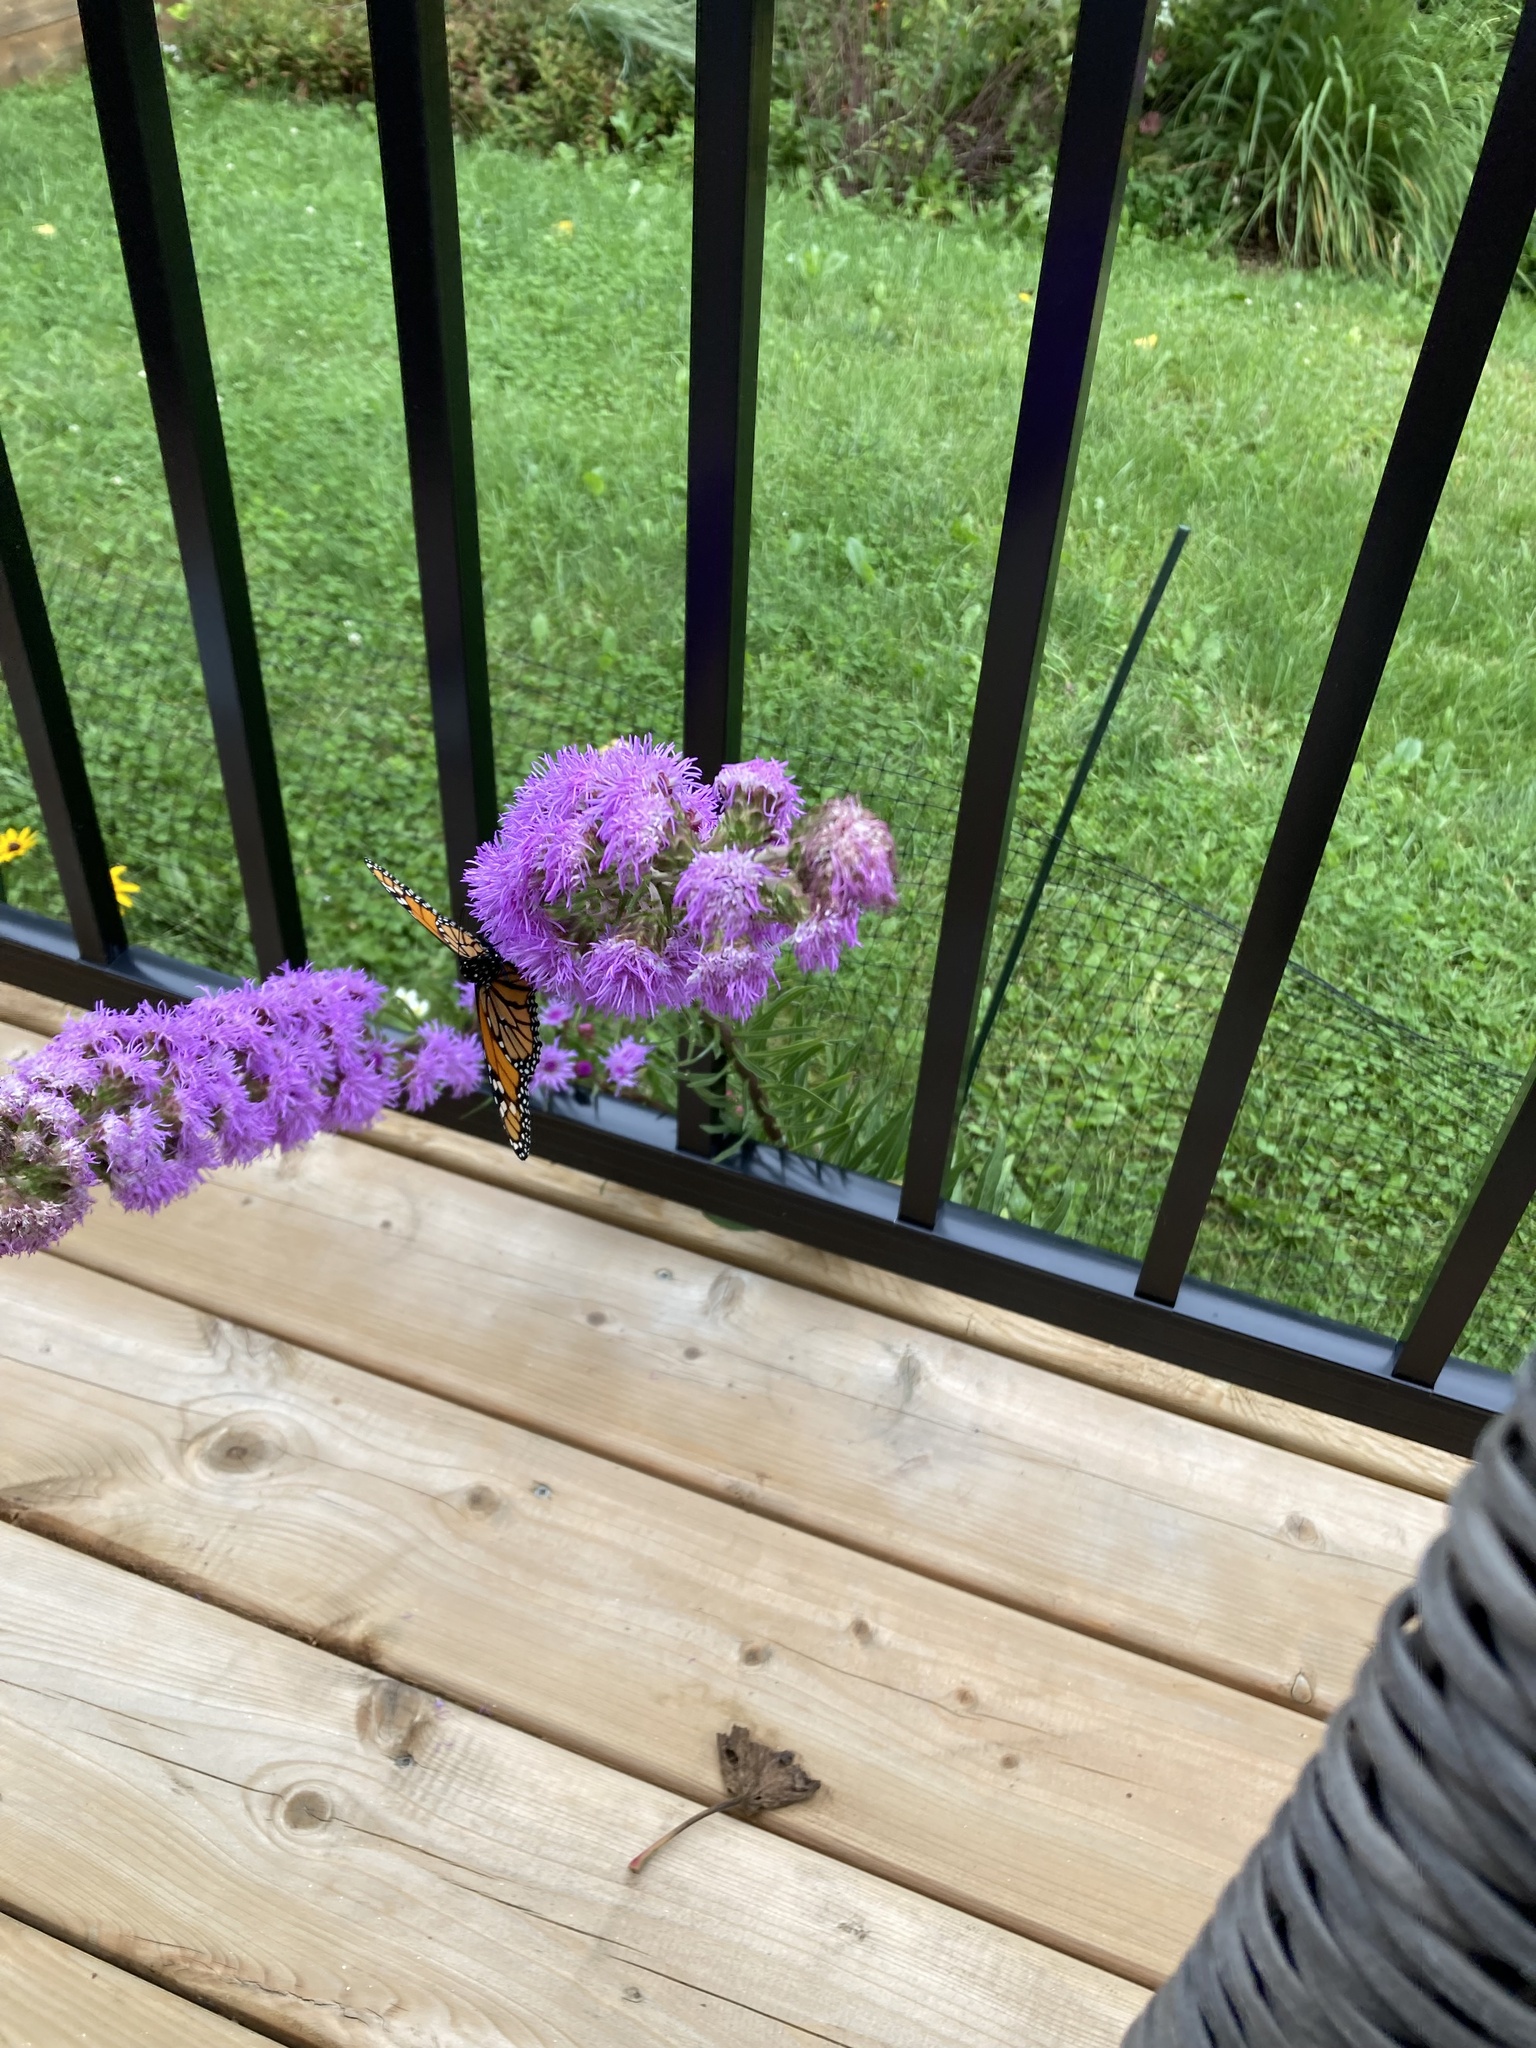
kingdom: Animalia
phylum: Arthropoda
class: Insecta
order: Lepidoptera
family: Nymphalidae
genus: Danaus
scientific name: Danaus plexippus
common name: Monarch
